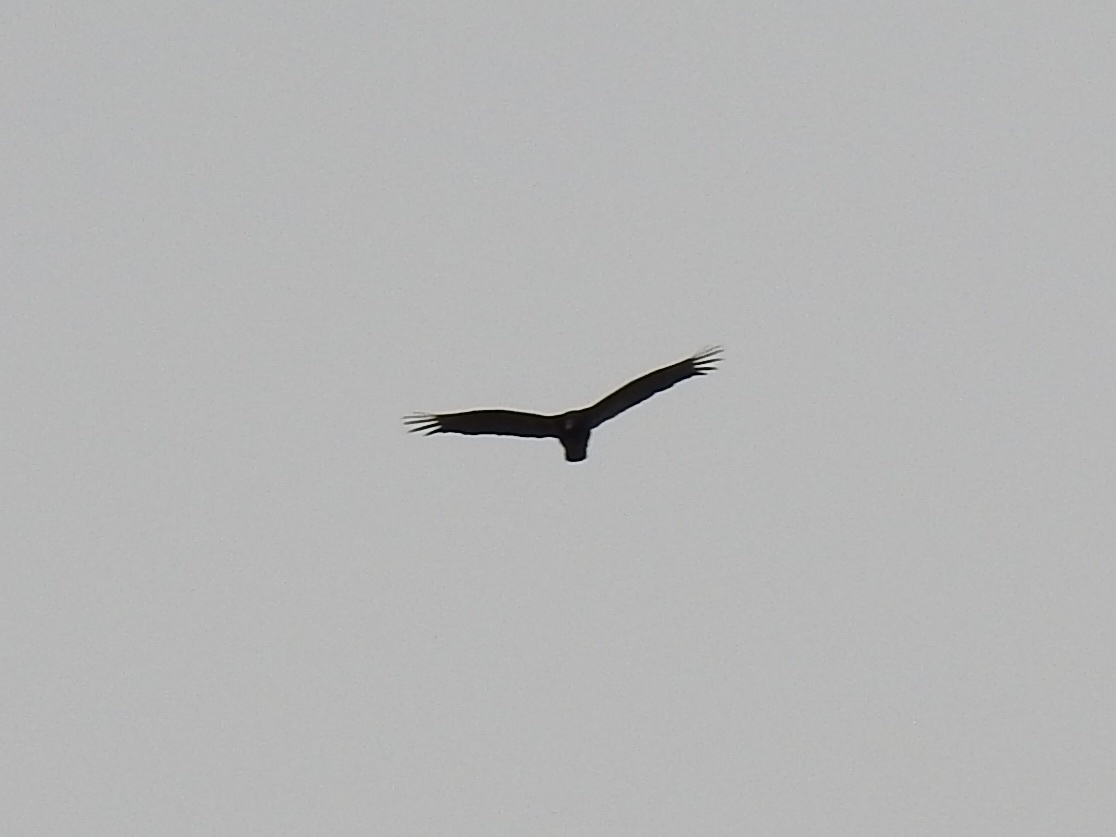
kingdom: Animalia
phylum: Chordata
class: Aves
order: Accipitriformes
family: Cathartidae
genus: Cathartes
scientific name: Cathartes aura
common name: Turkey vulture
